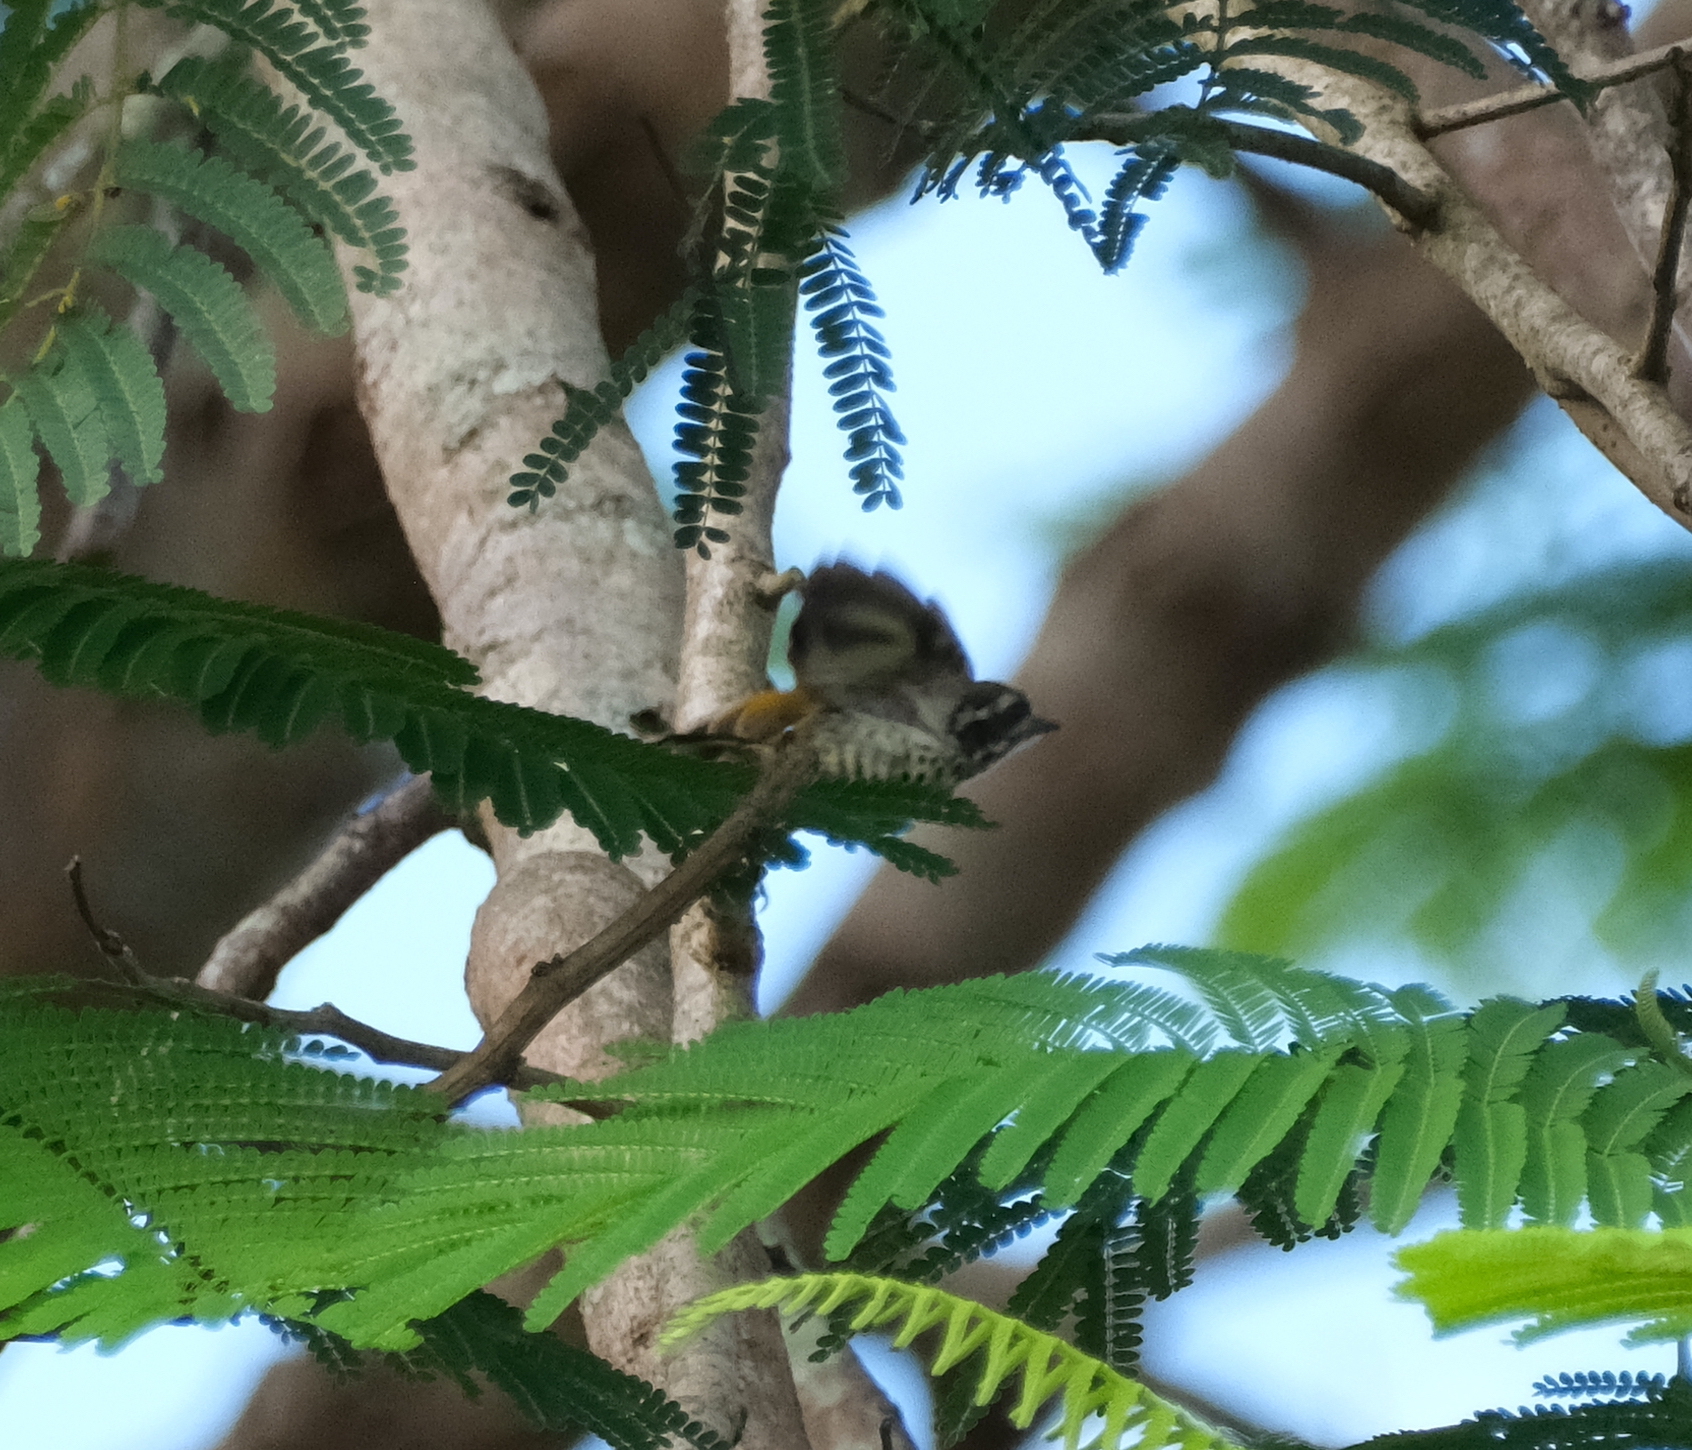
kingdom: Animalia
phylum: Chordata
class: Aves
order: Piciformes
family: Picidae
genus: Picumnus
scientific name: Picumnus innominatus
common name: Speckled piculet
